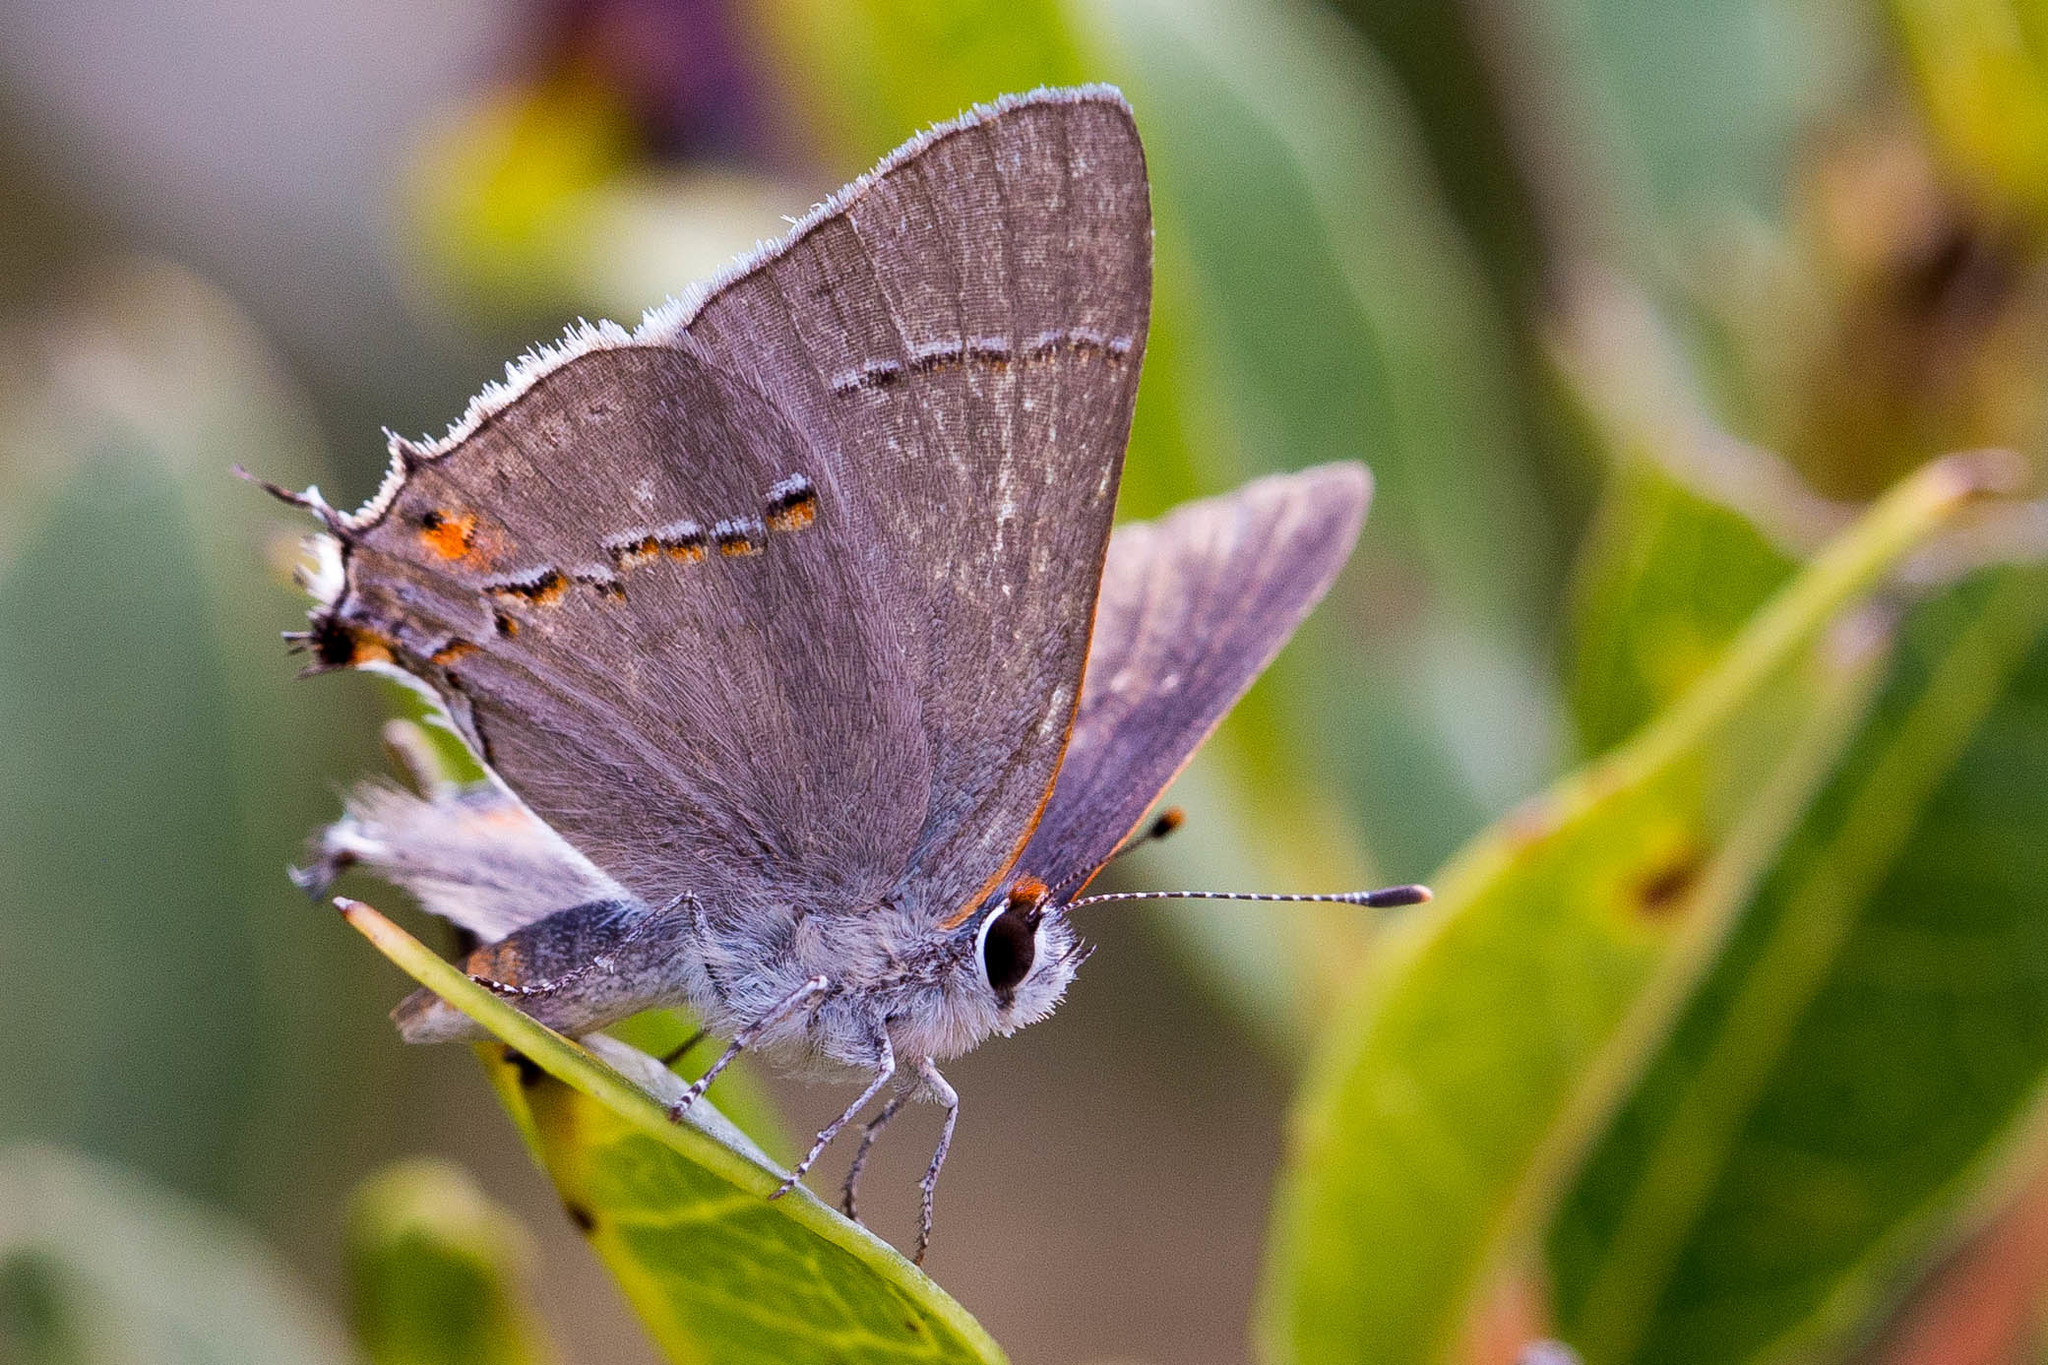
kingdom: Animalia
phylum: Arthropoda
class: Insecta
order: Lepidoptera
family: Lycaenidae
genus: Strymon
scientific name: Strymon melinus
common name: Gray hairstreak
